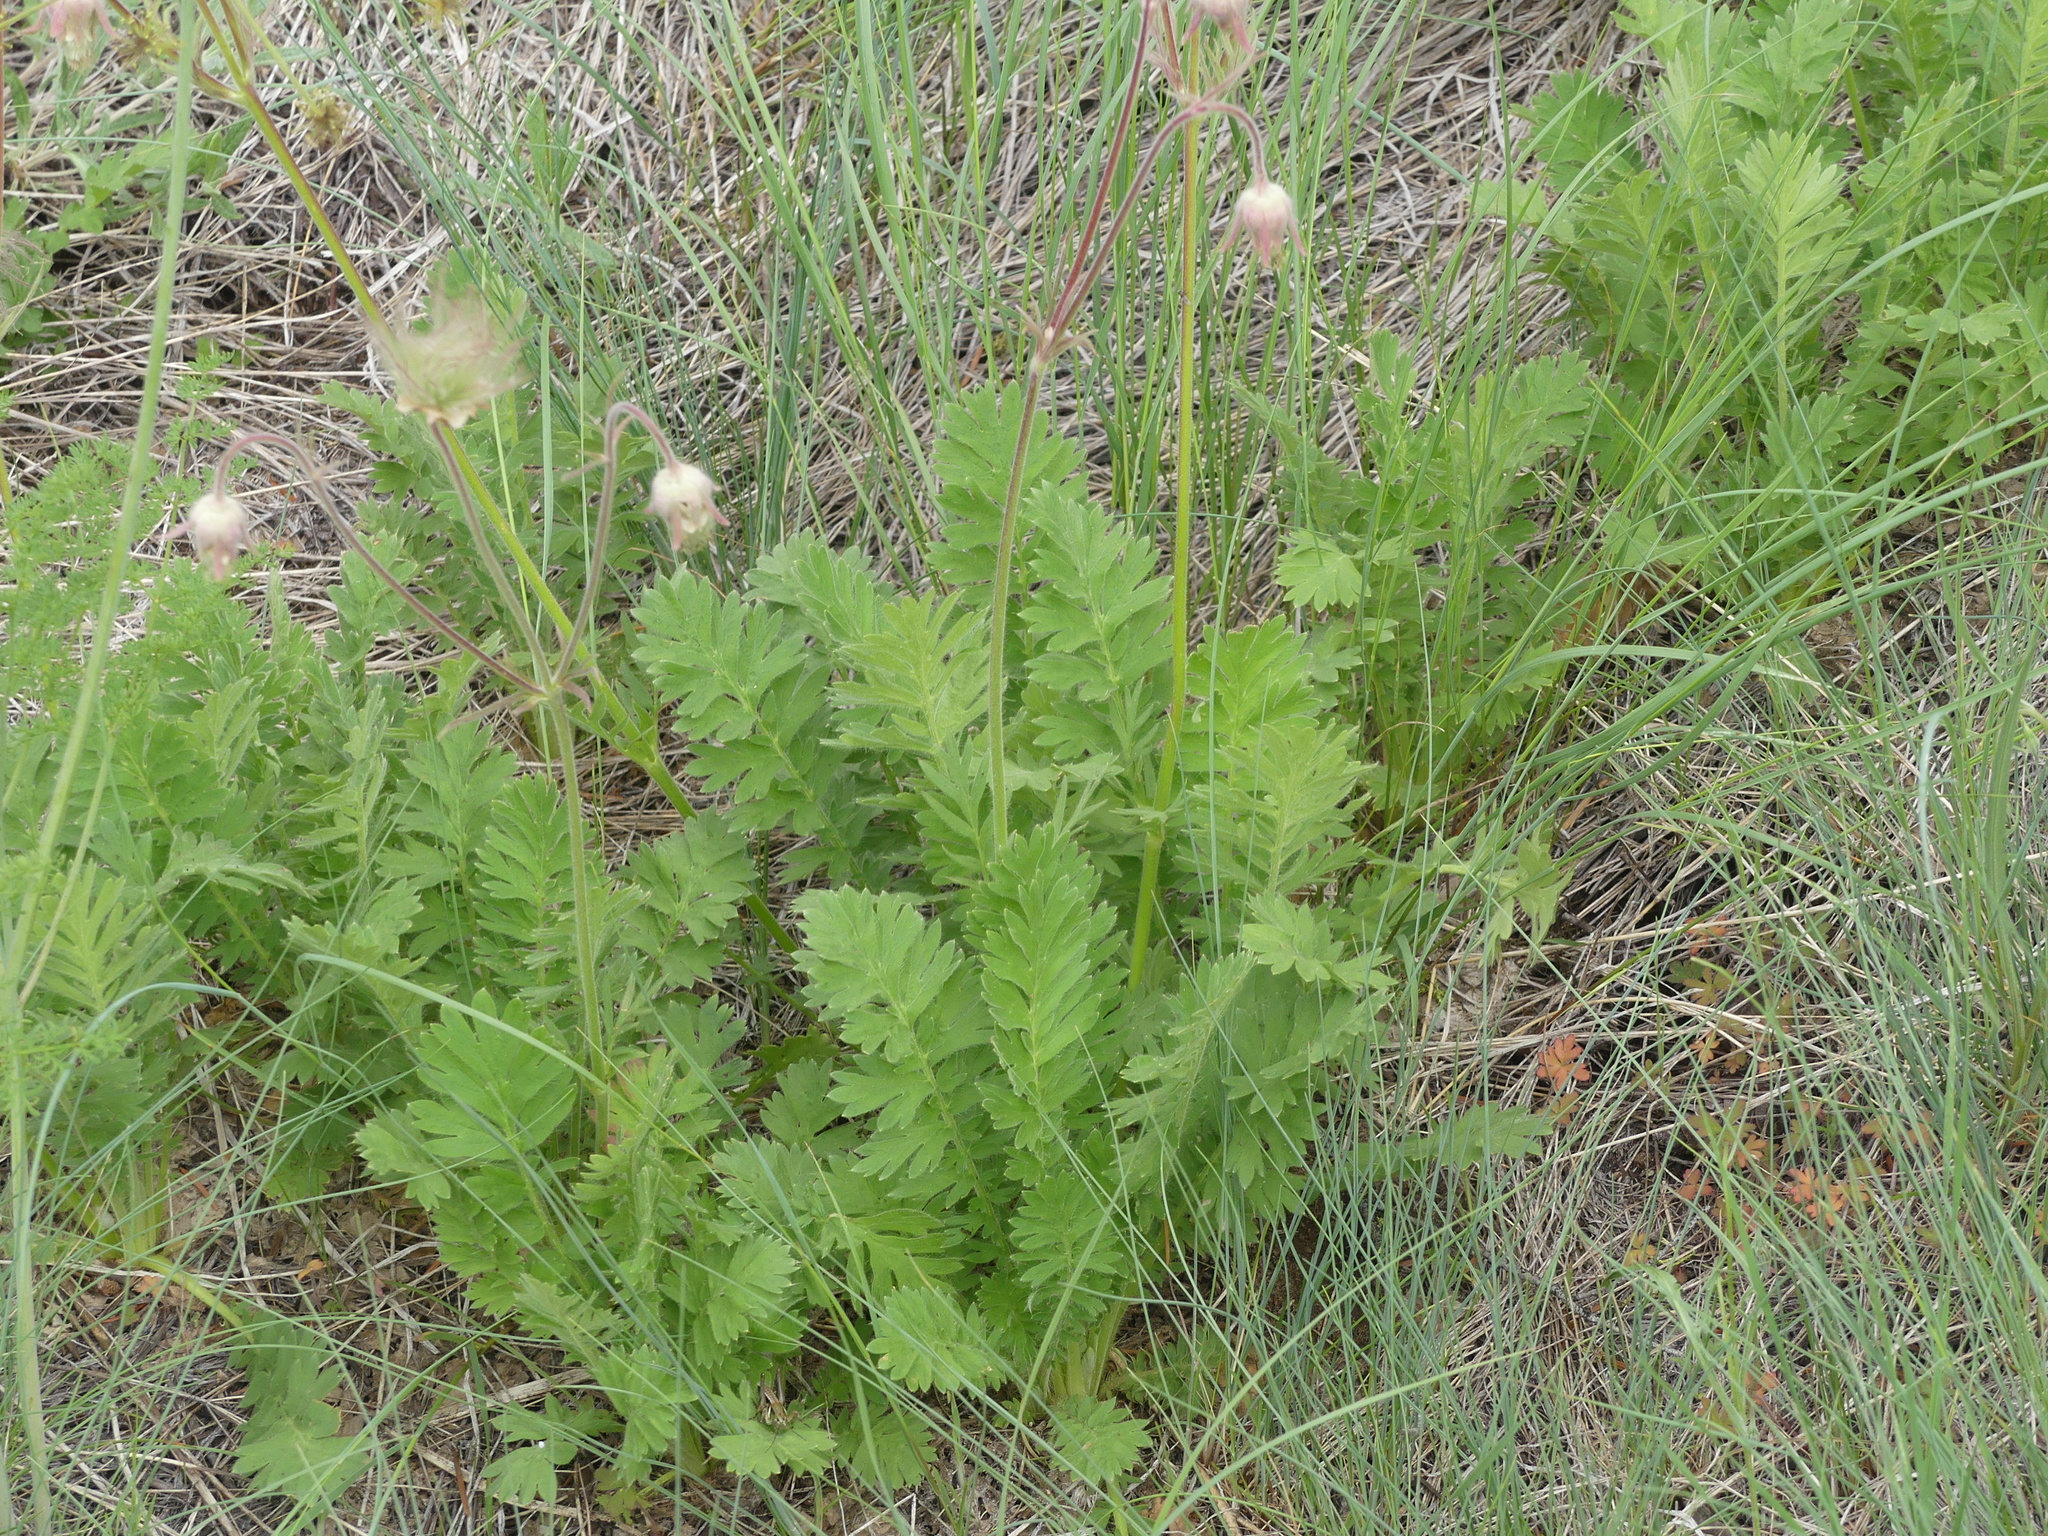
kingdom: Plantae
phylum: Tracheophyta
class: Magnoliopsida
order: Rosales
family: Rosaceae
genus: Geum
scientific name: Geum triflorum
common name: Old man's whiskers
